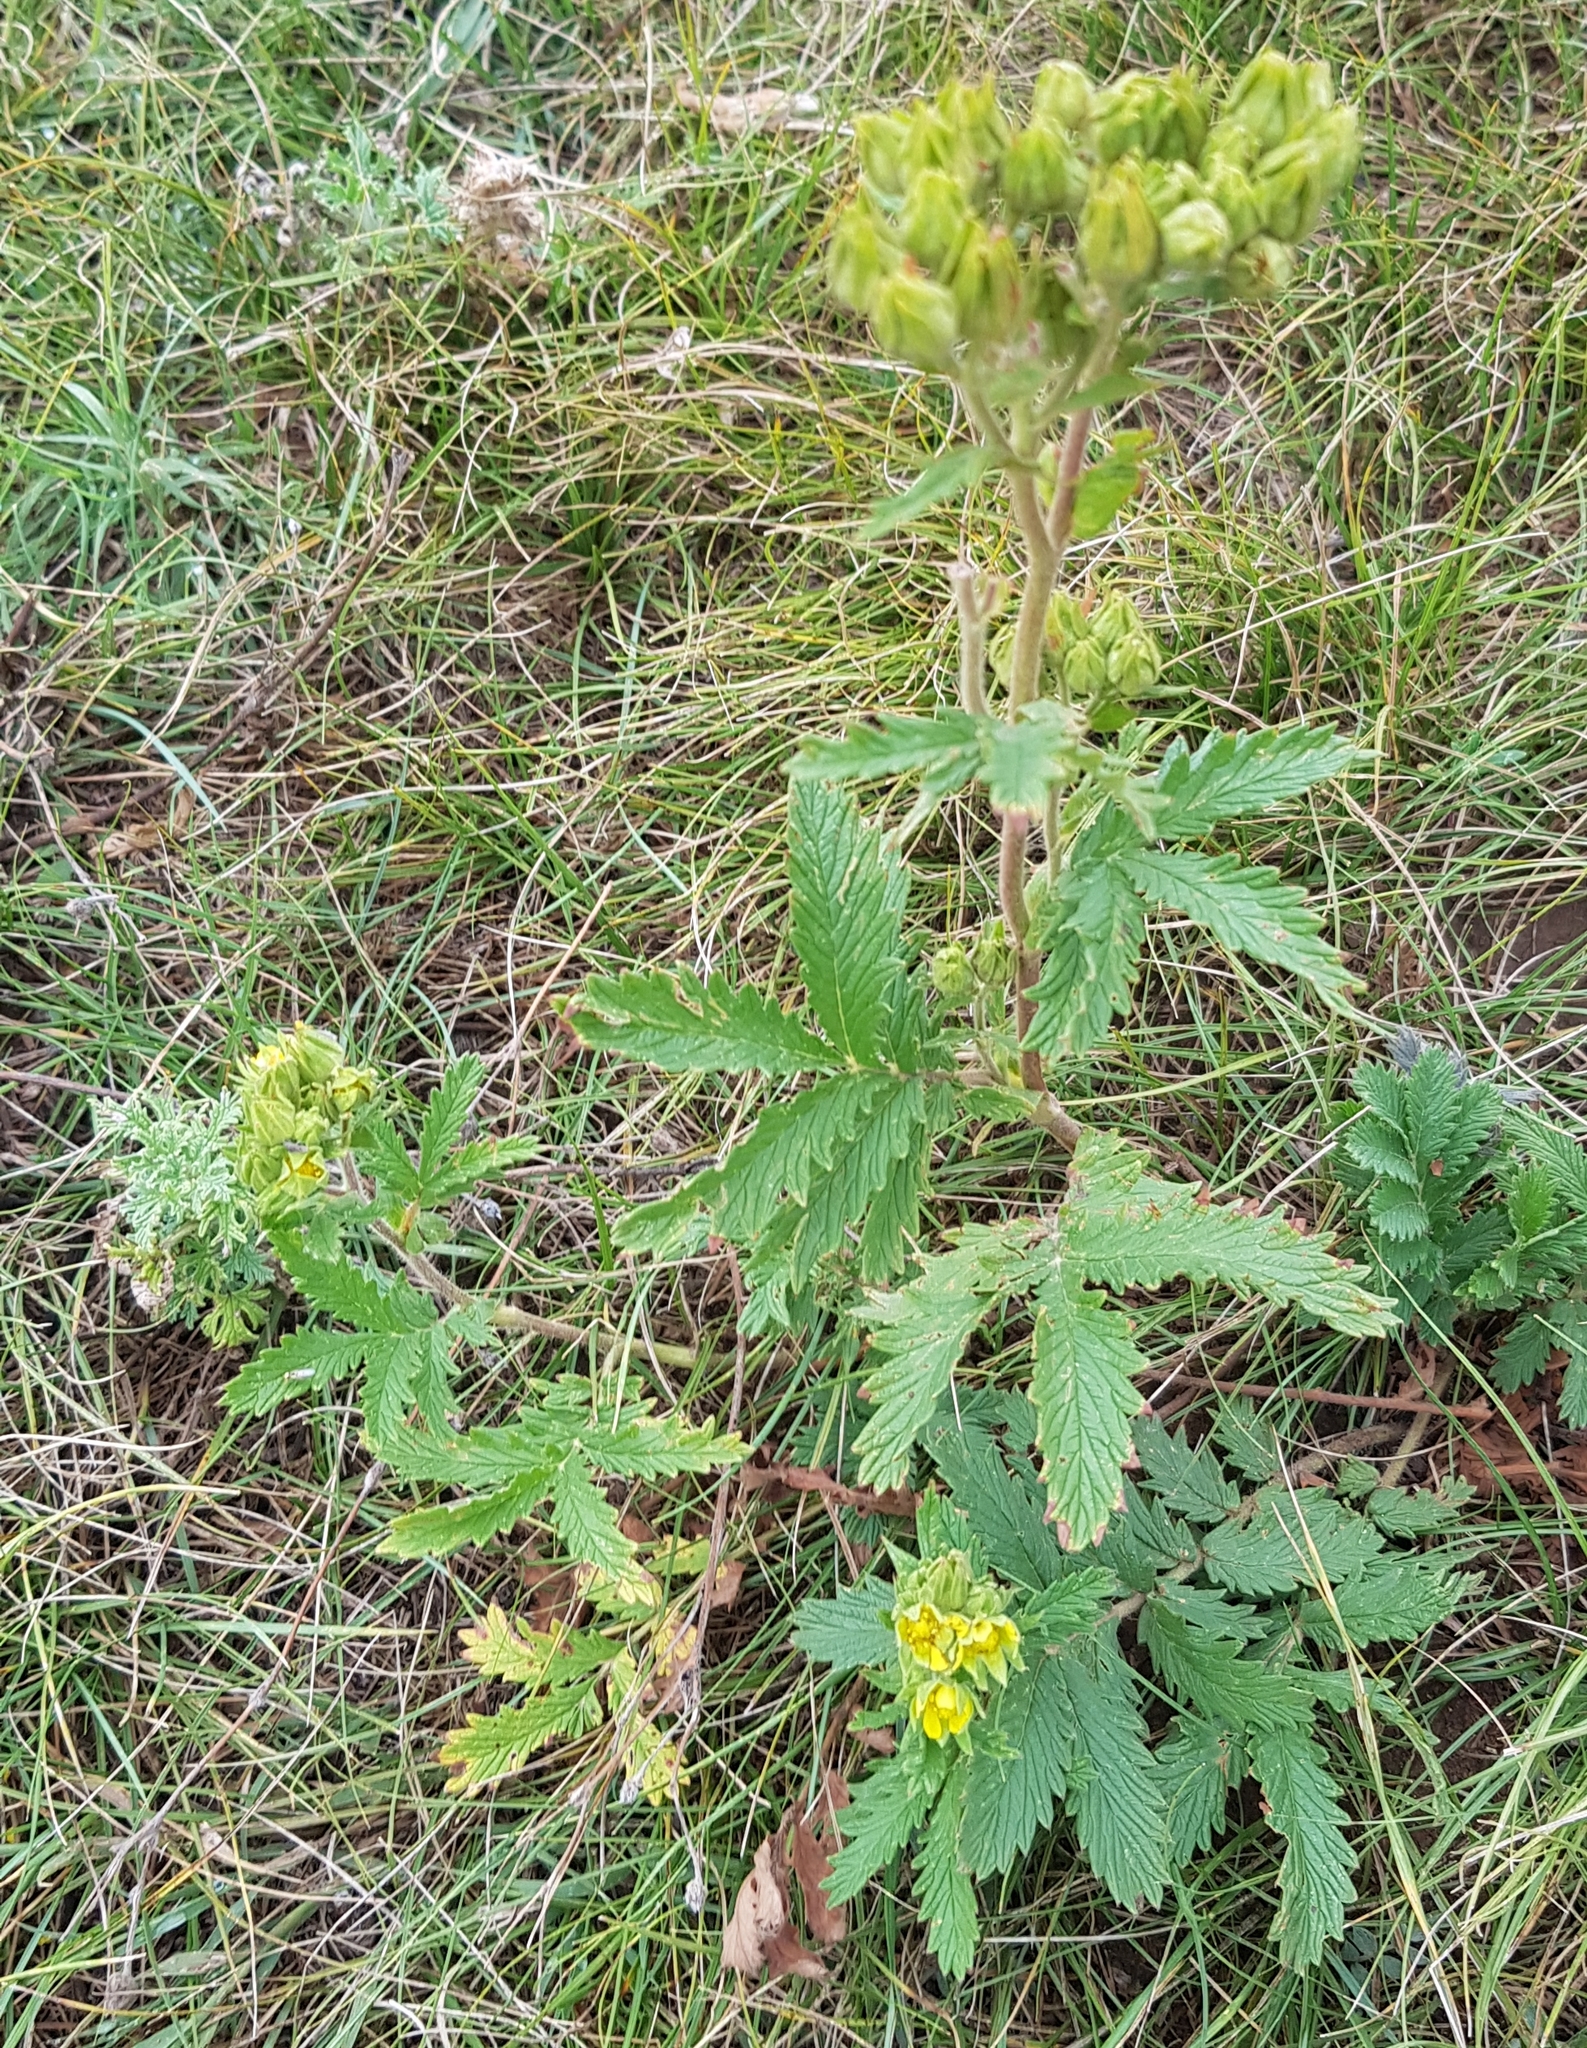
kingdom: Plantae
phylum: Tracheophyta
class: Magnoliopsida
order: Rosales
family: Rosaceae
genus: Potentilla
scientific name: Potentilla tanacetifolia
